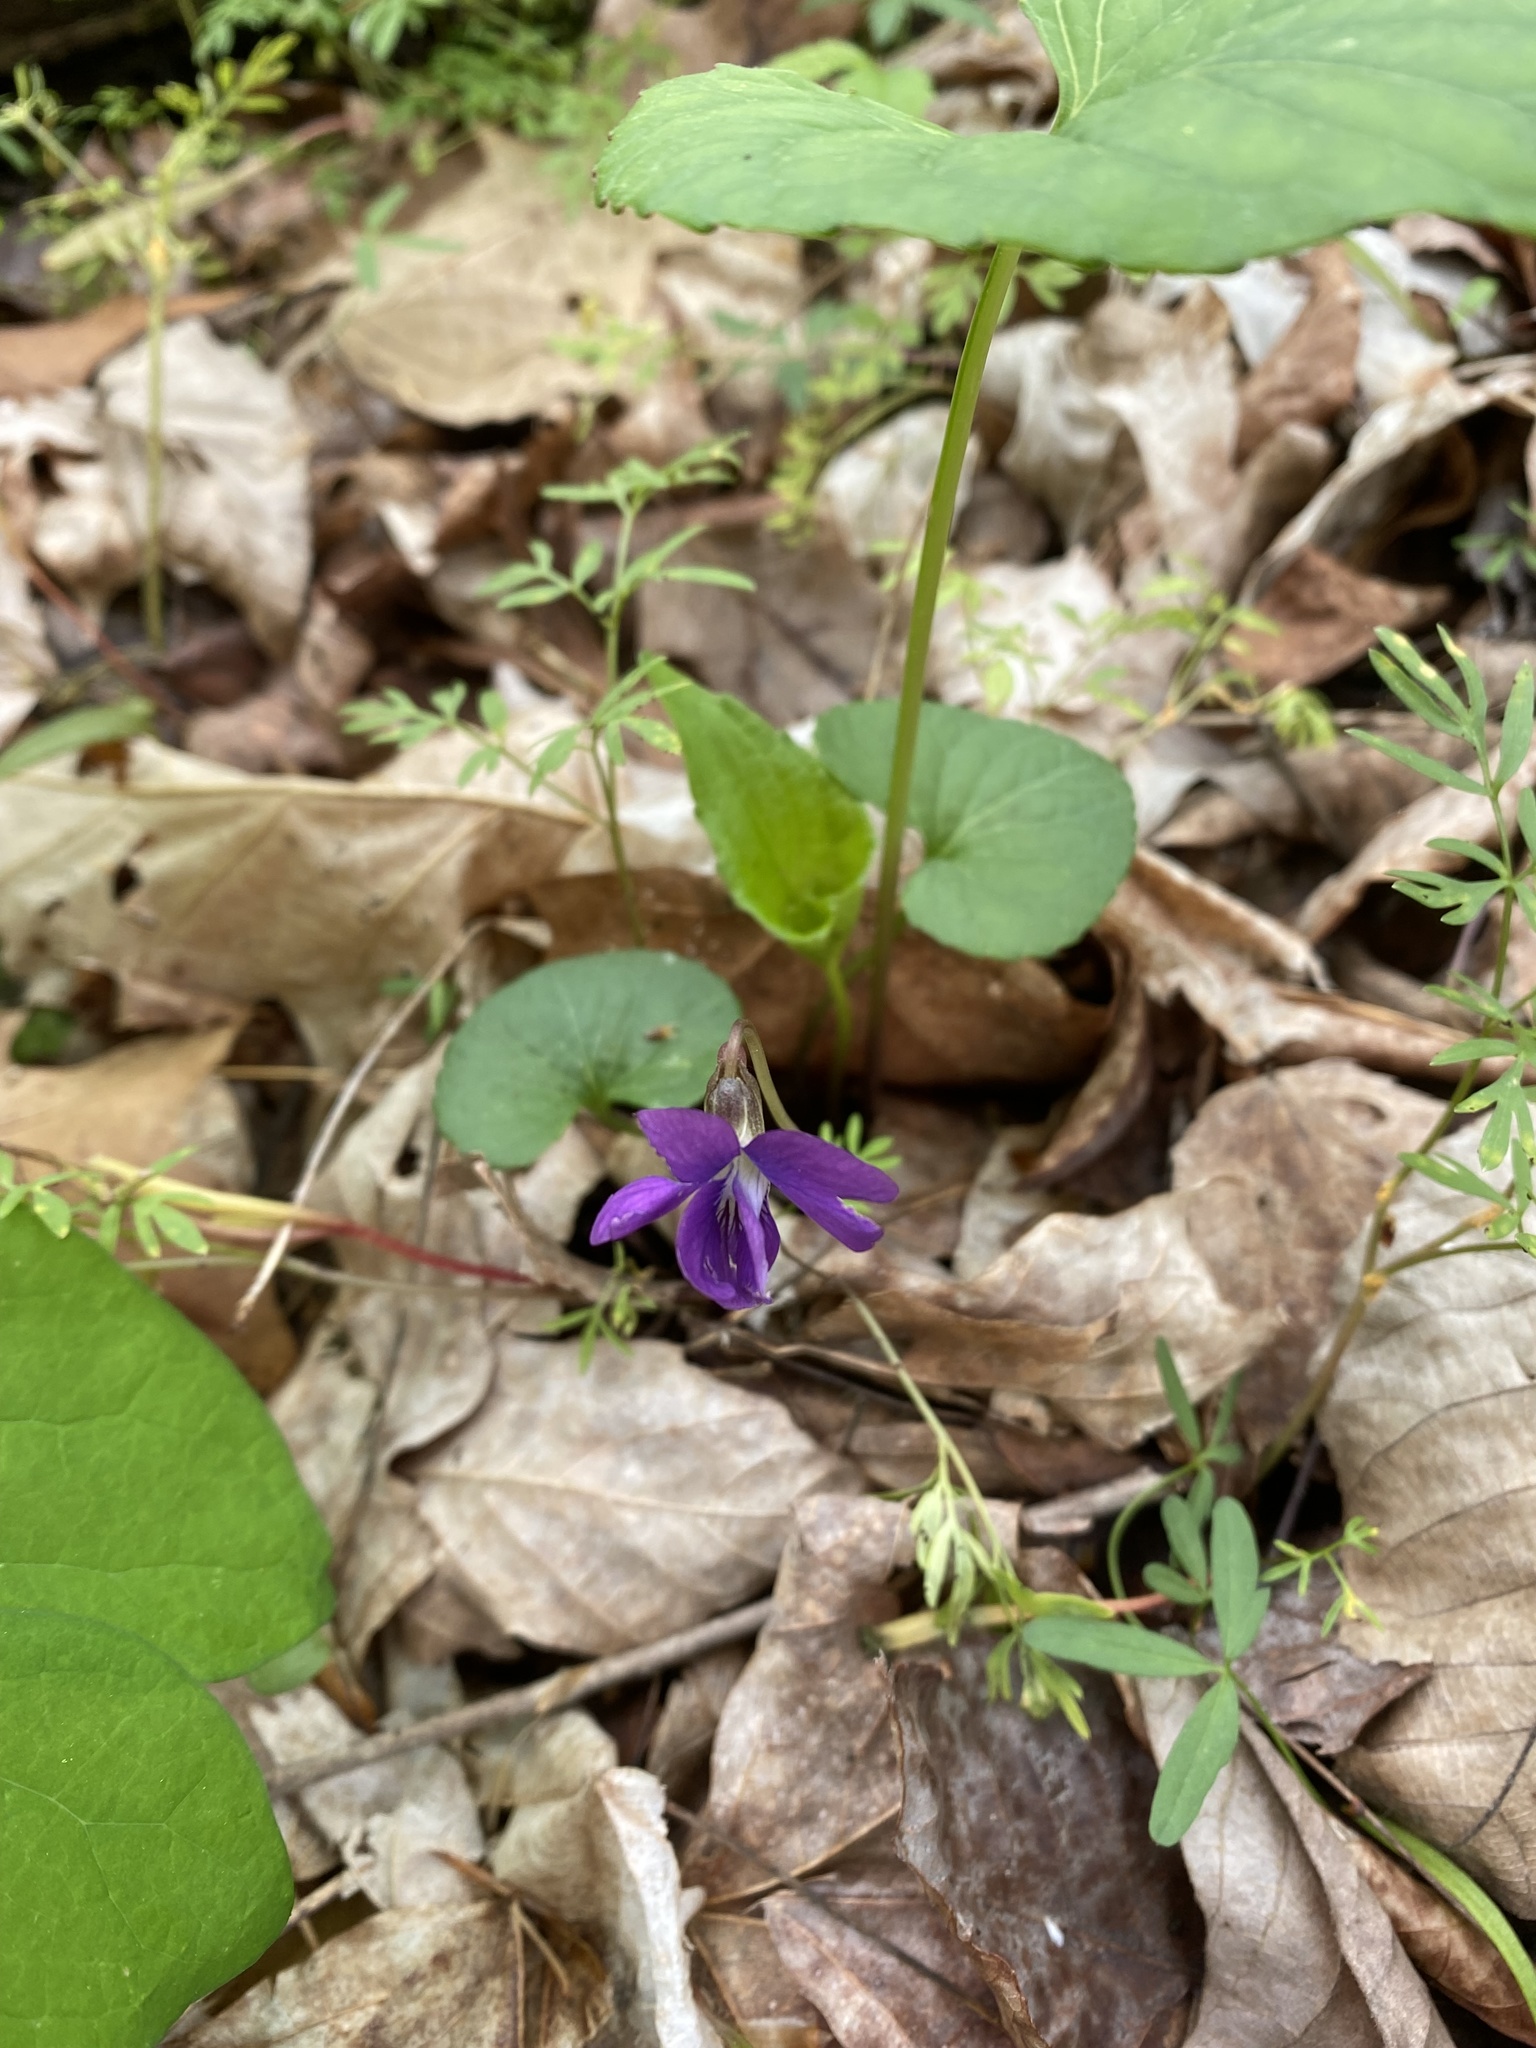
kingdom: Plantae
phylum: Tracheophyta
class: Magnoliopsida
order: Malpighiales
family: Violaceae
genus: Viola
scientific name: Viola sororia
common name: Dooryard violet
